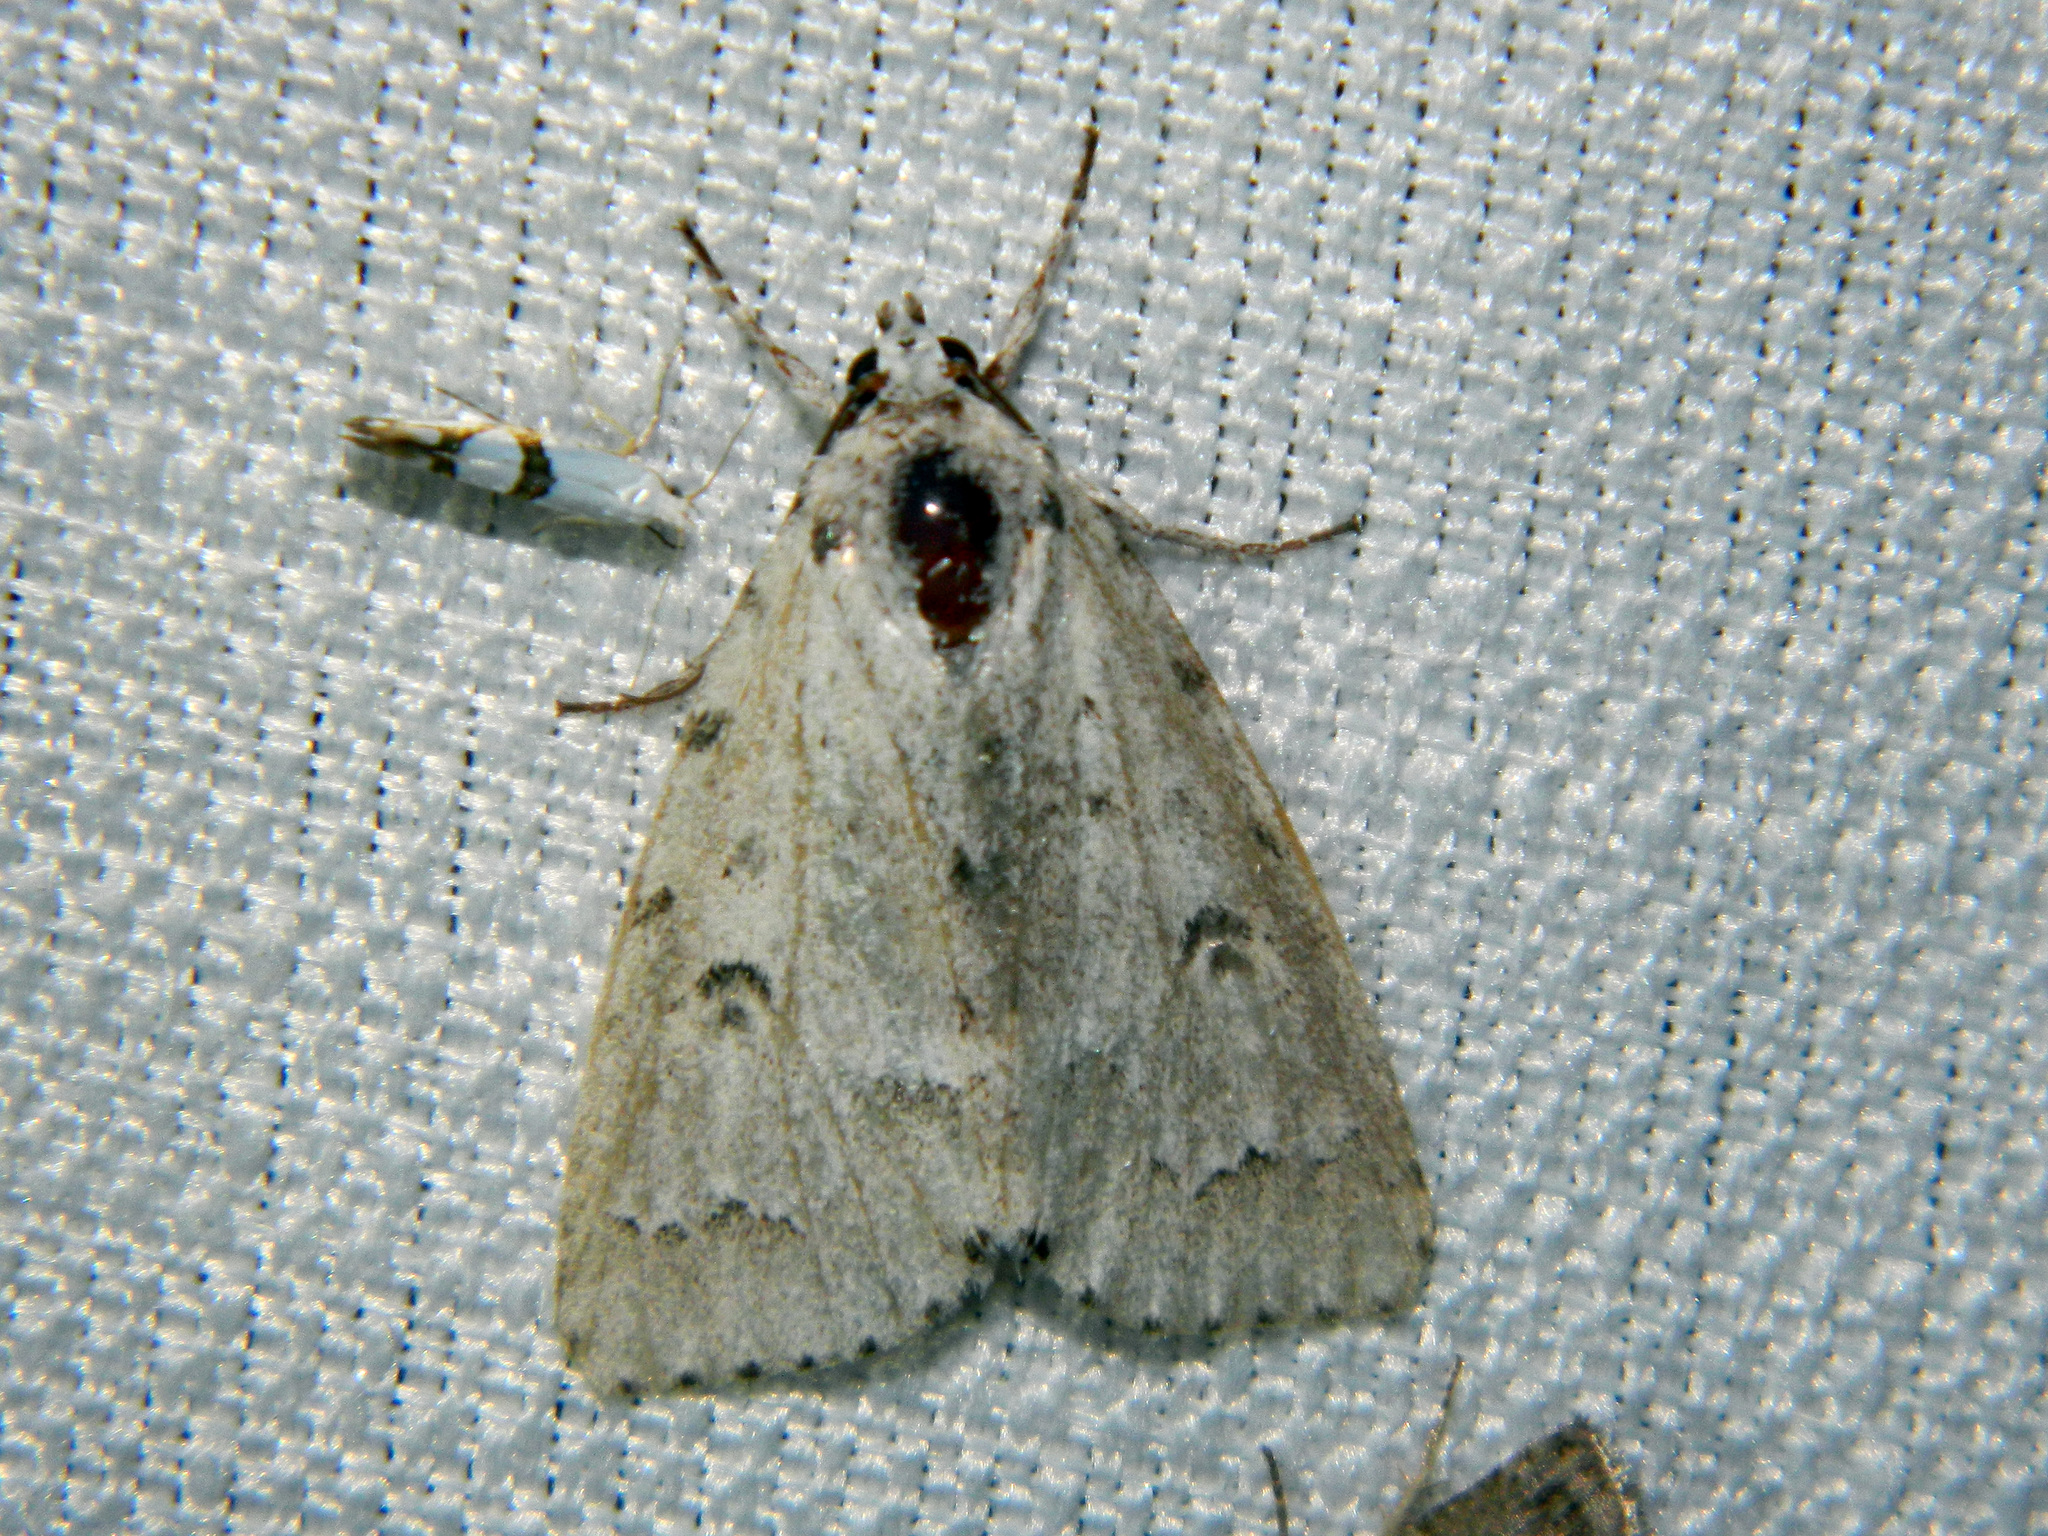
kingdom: Animalia
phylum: Arthropoda
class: Insecta
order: Lepidoptera
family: Noctuidae
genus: Acronicta
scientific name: Acronicta innotata
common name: Unmarked dagger
